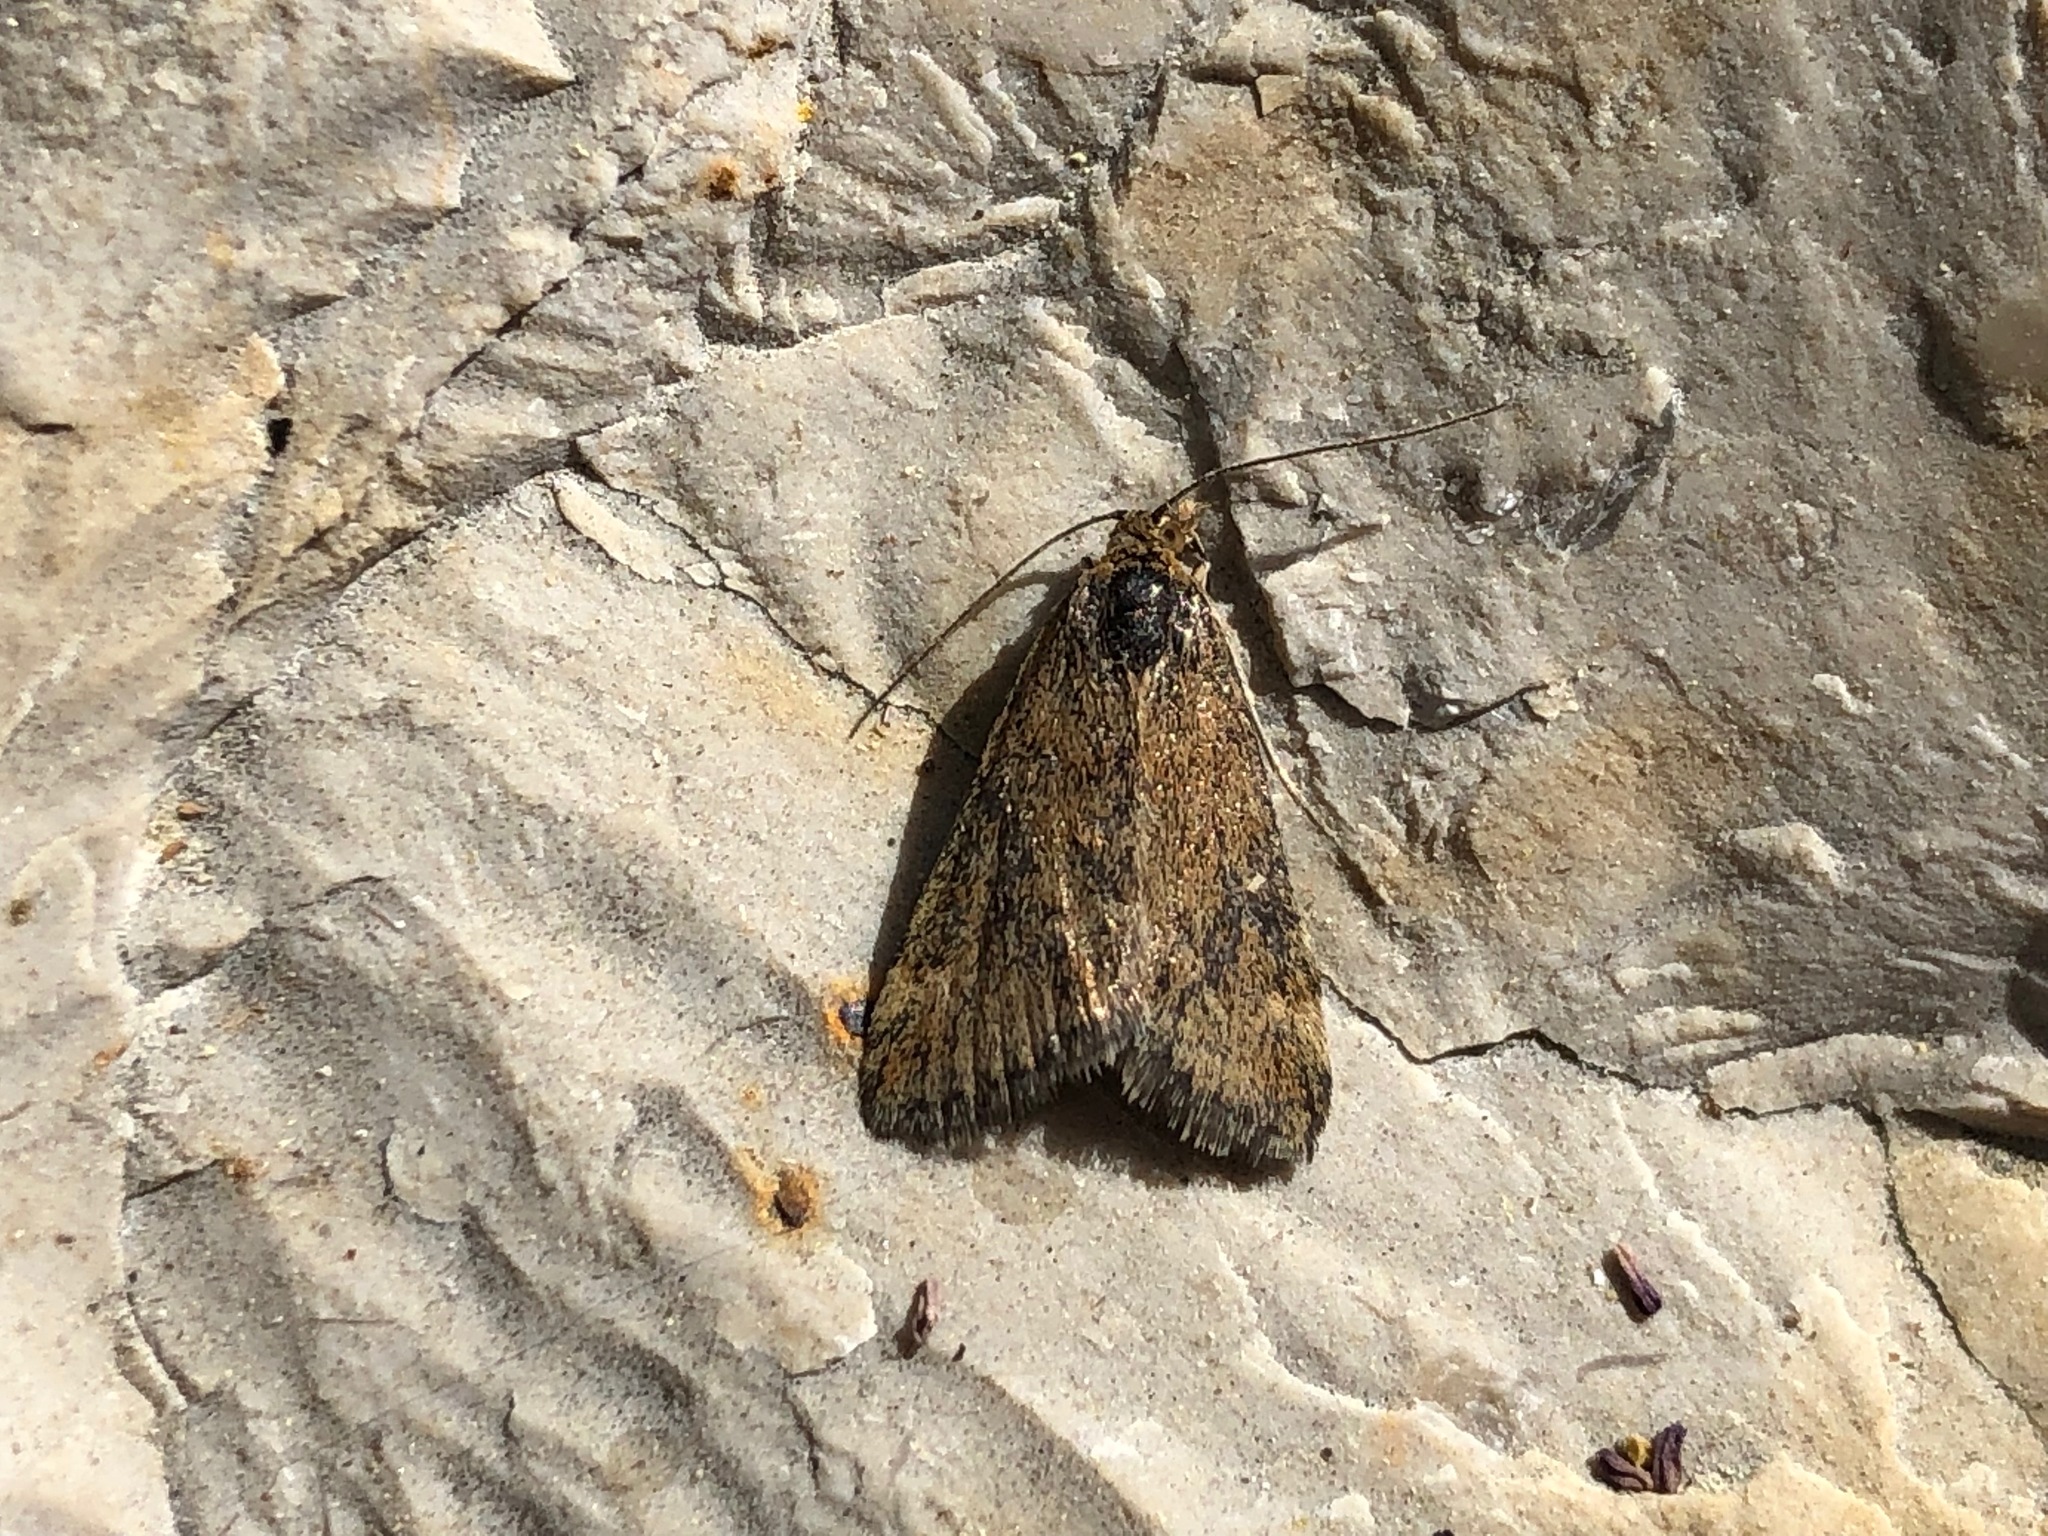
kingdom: Animalia
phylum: Arthropoda
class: Insecta
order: Lepidoptera
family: Crambidae
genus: Pyrausta
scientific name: Pyrausta despicata
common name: Straw-barred pearl
